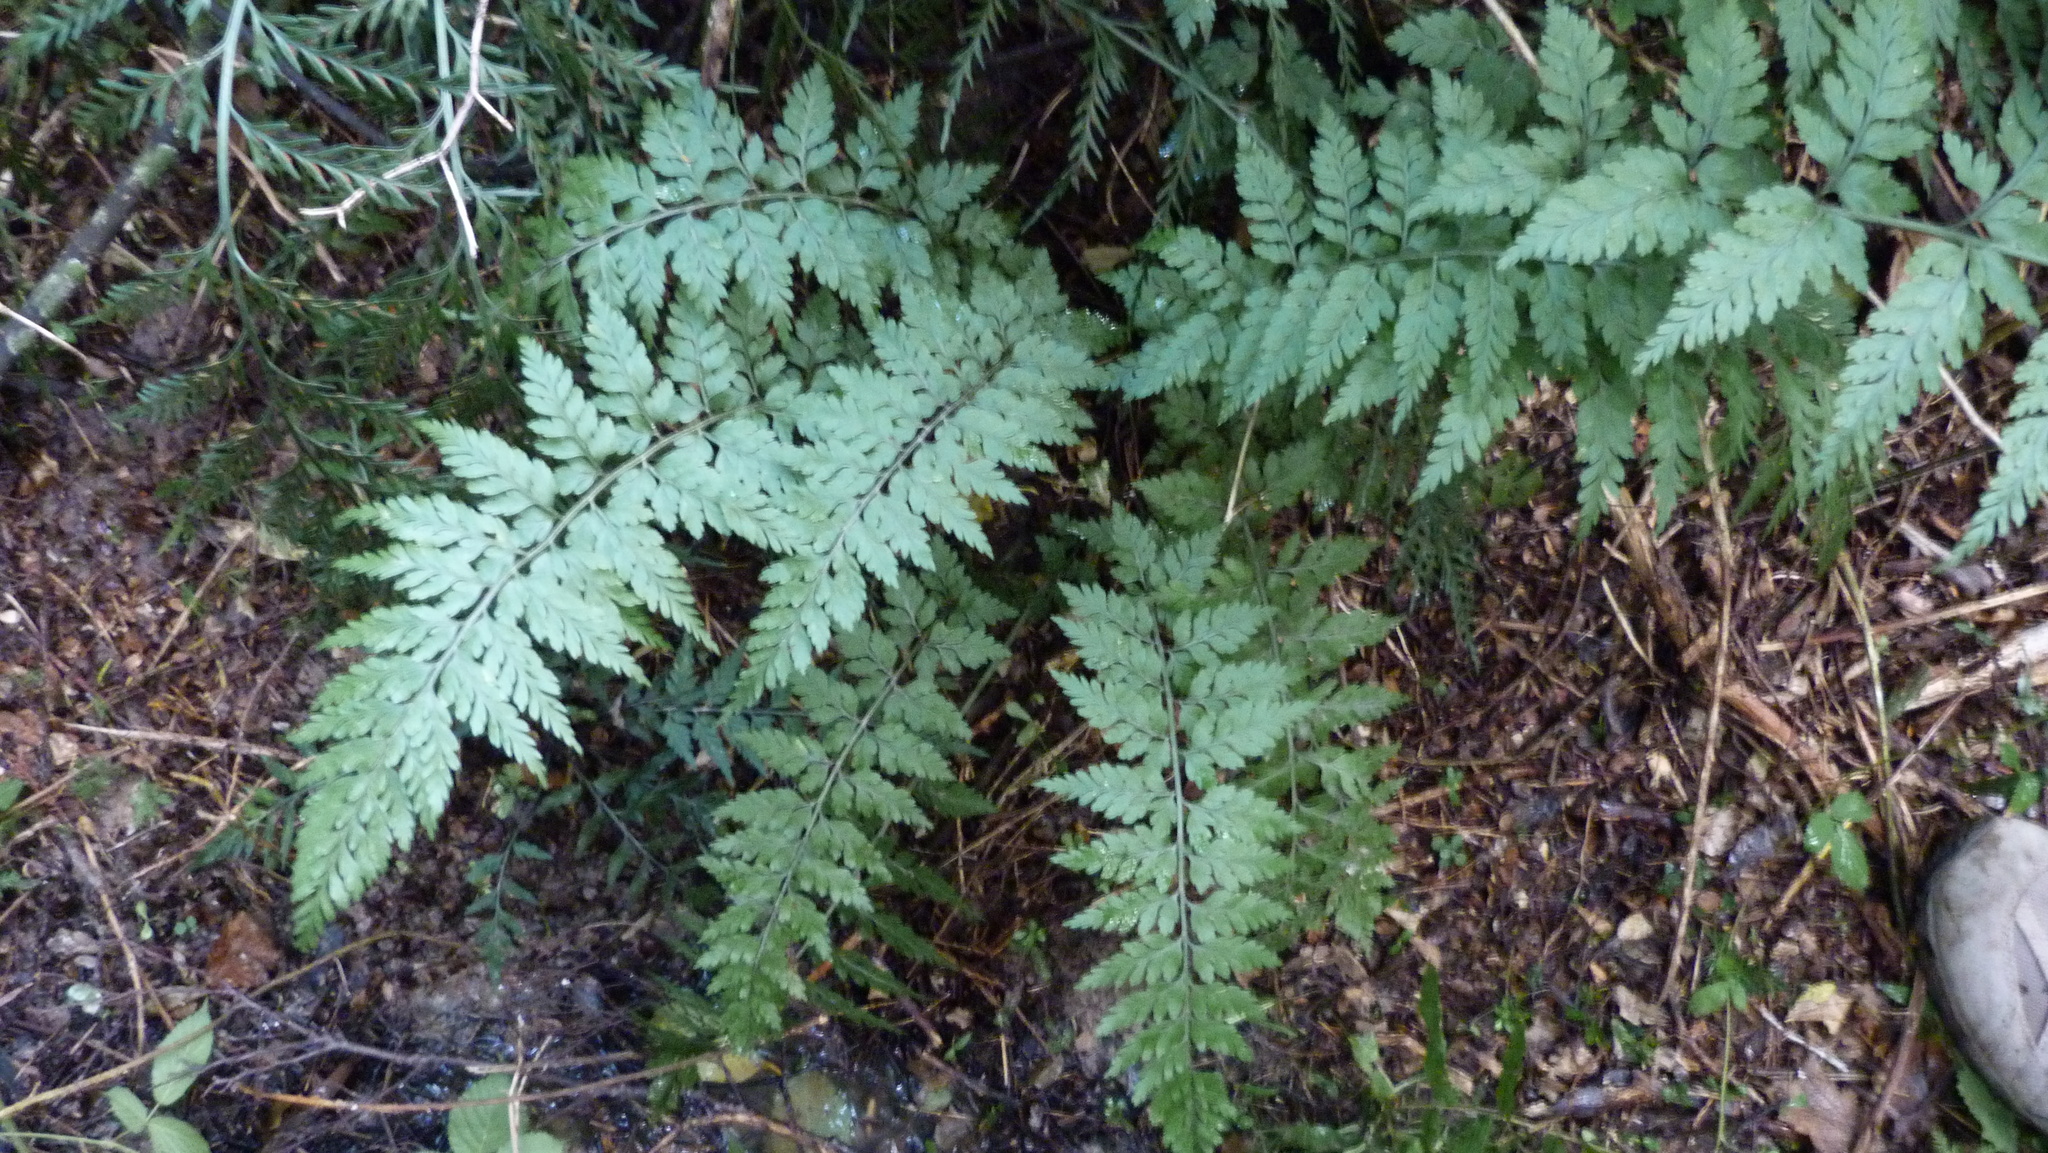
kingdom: Plantae
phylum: Tracheophyta
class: Polypodiopsida
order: Polypodiales
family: Aspleniaceae
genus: Asplenium
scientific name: Asplenium
